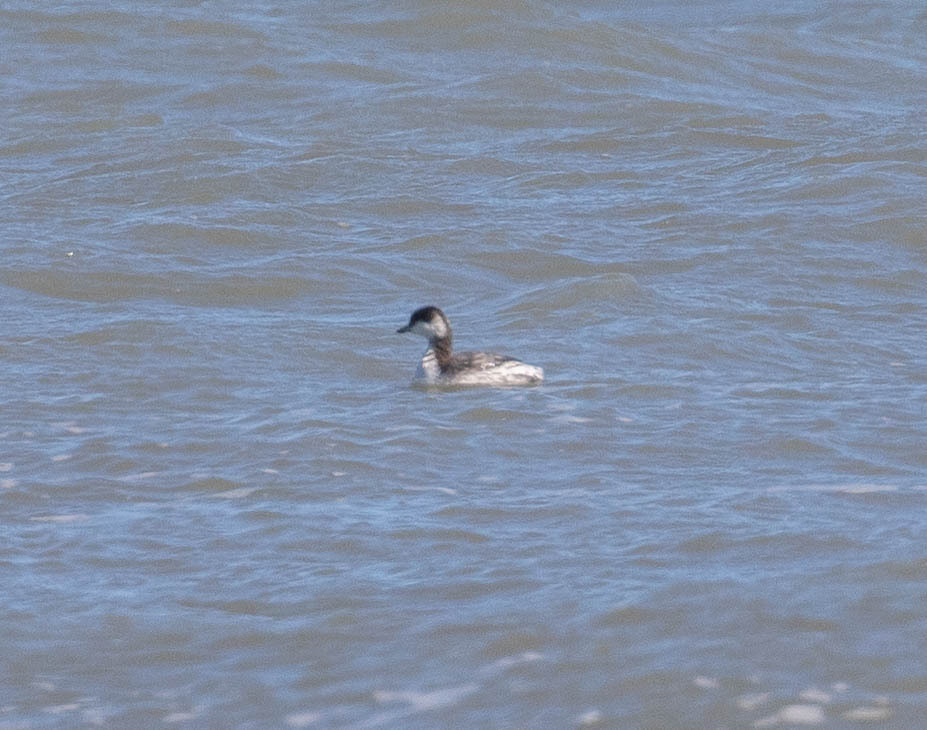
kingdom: Animalia
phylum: Chordata
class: Aves
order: Podicipediformes
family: Podicipedidae
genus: Podiceps
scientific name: Podiceps auritus
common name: Horned grebe
